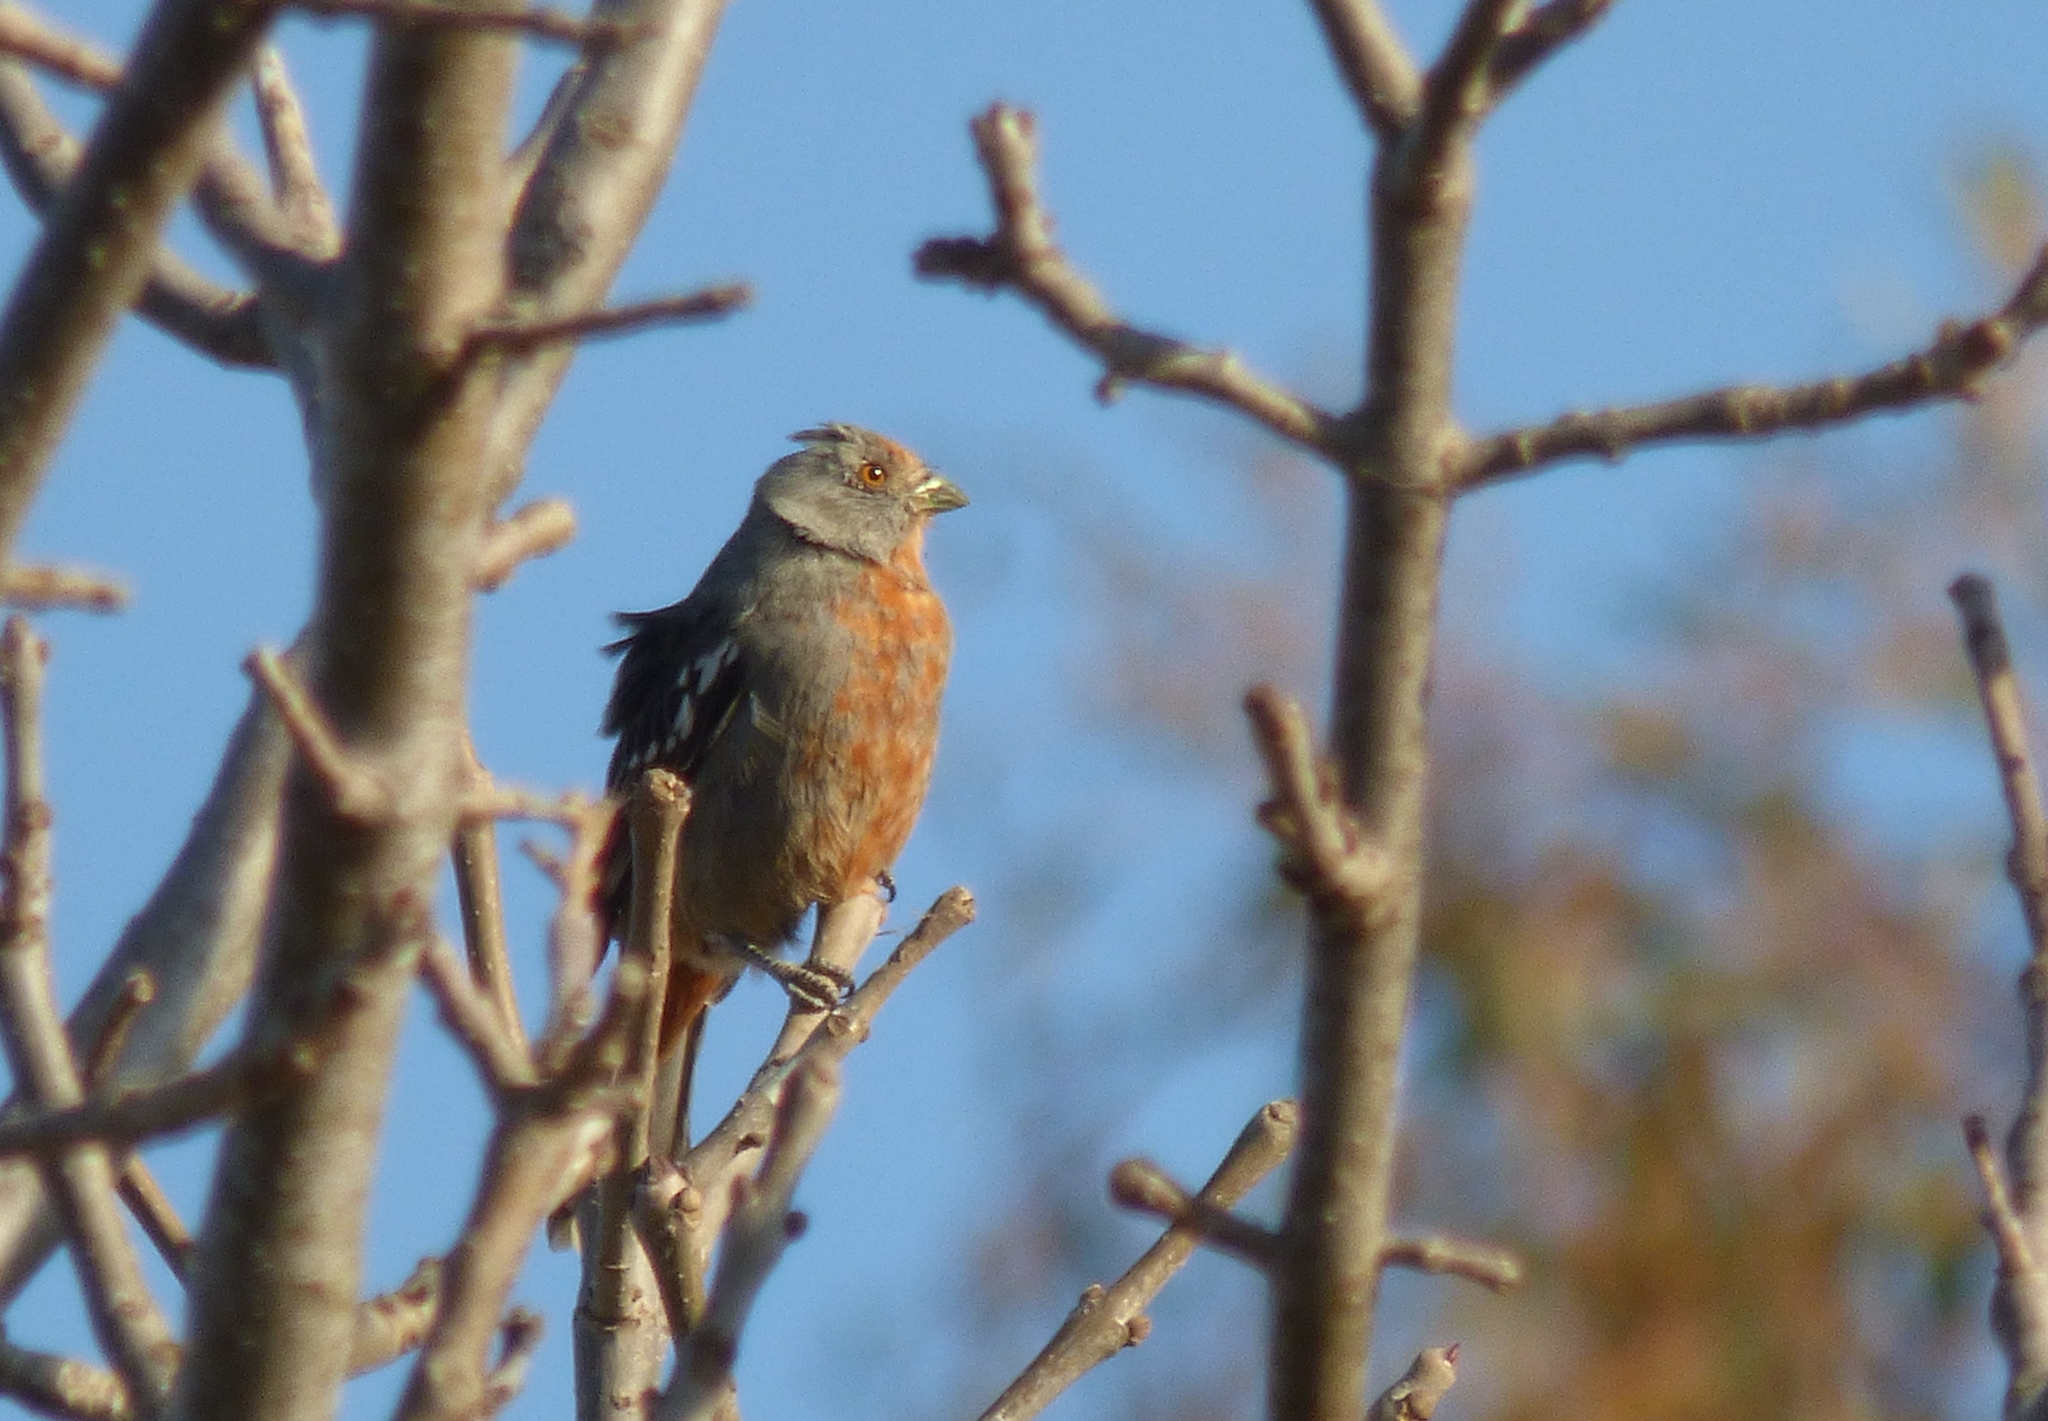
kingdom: Animalia
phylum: Chordata
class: Aves
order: Passeriformes
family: Cotingidae
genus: Phytotoma
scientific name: Phytotoma rutila
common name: White-tipped plantcutter
